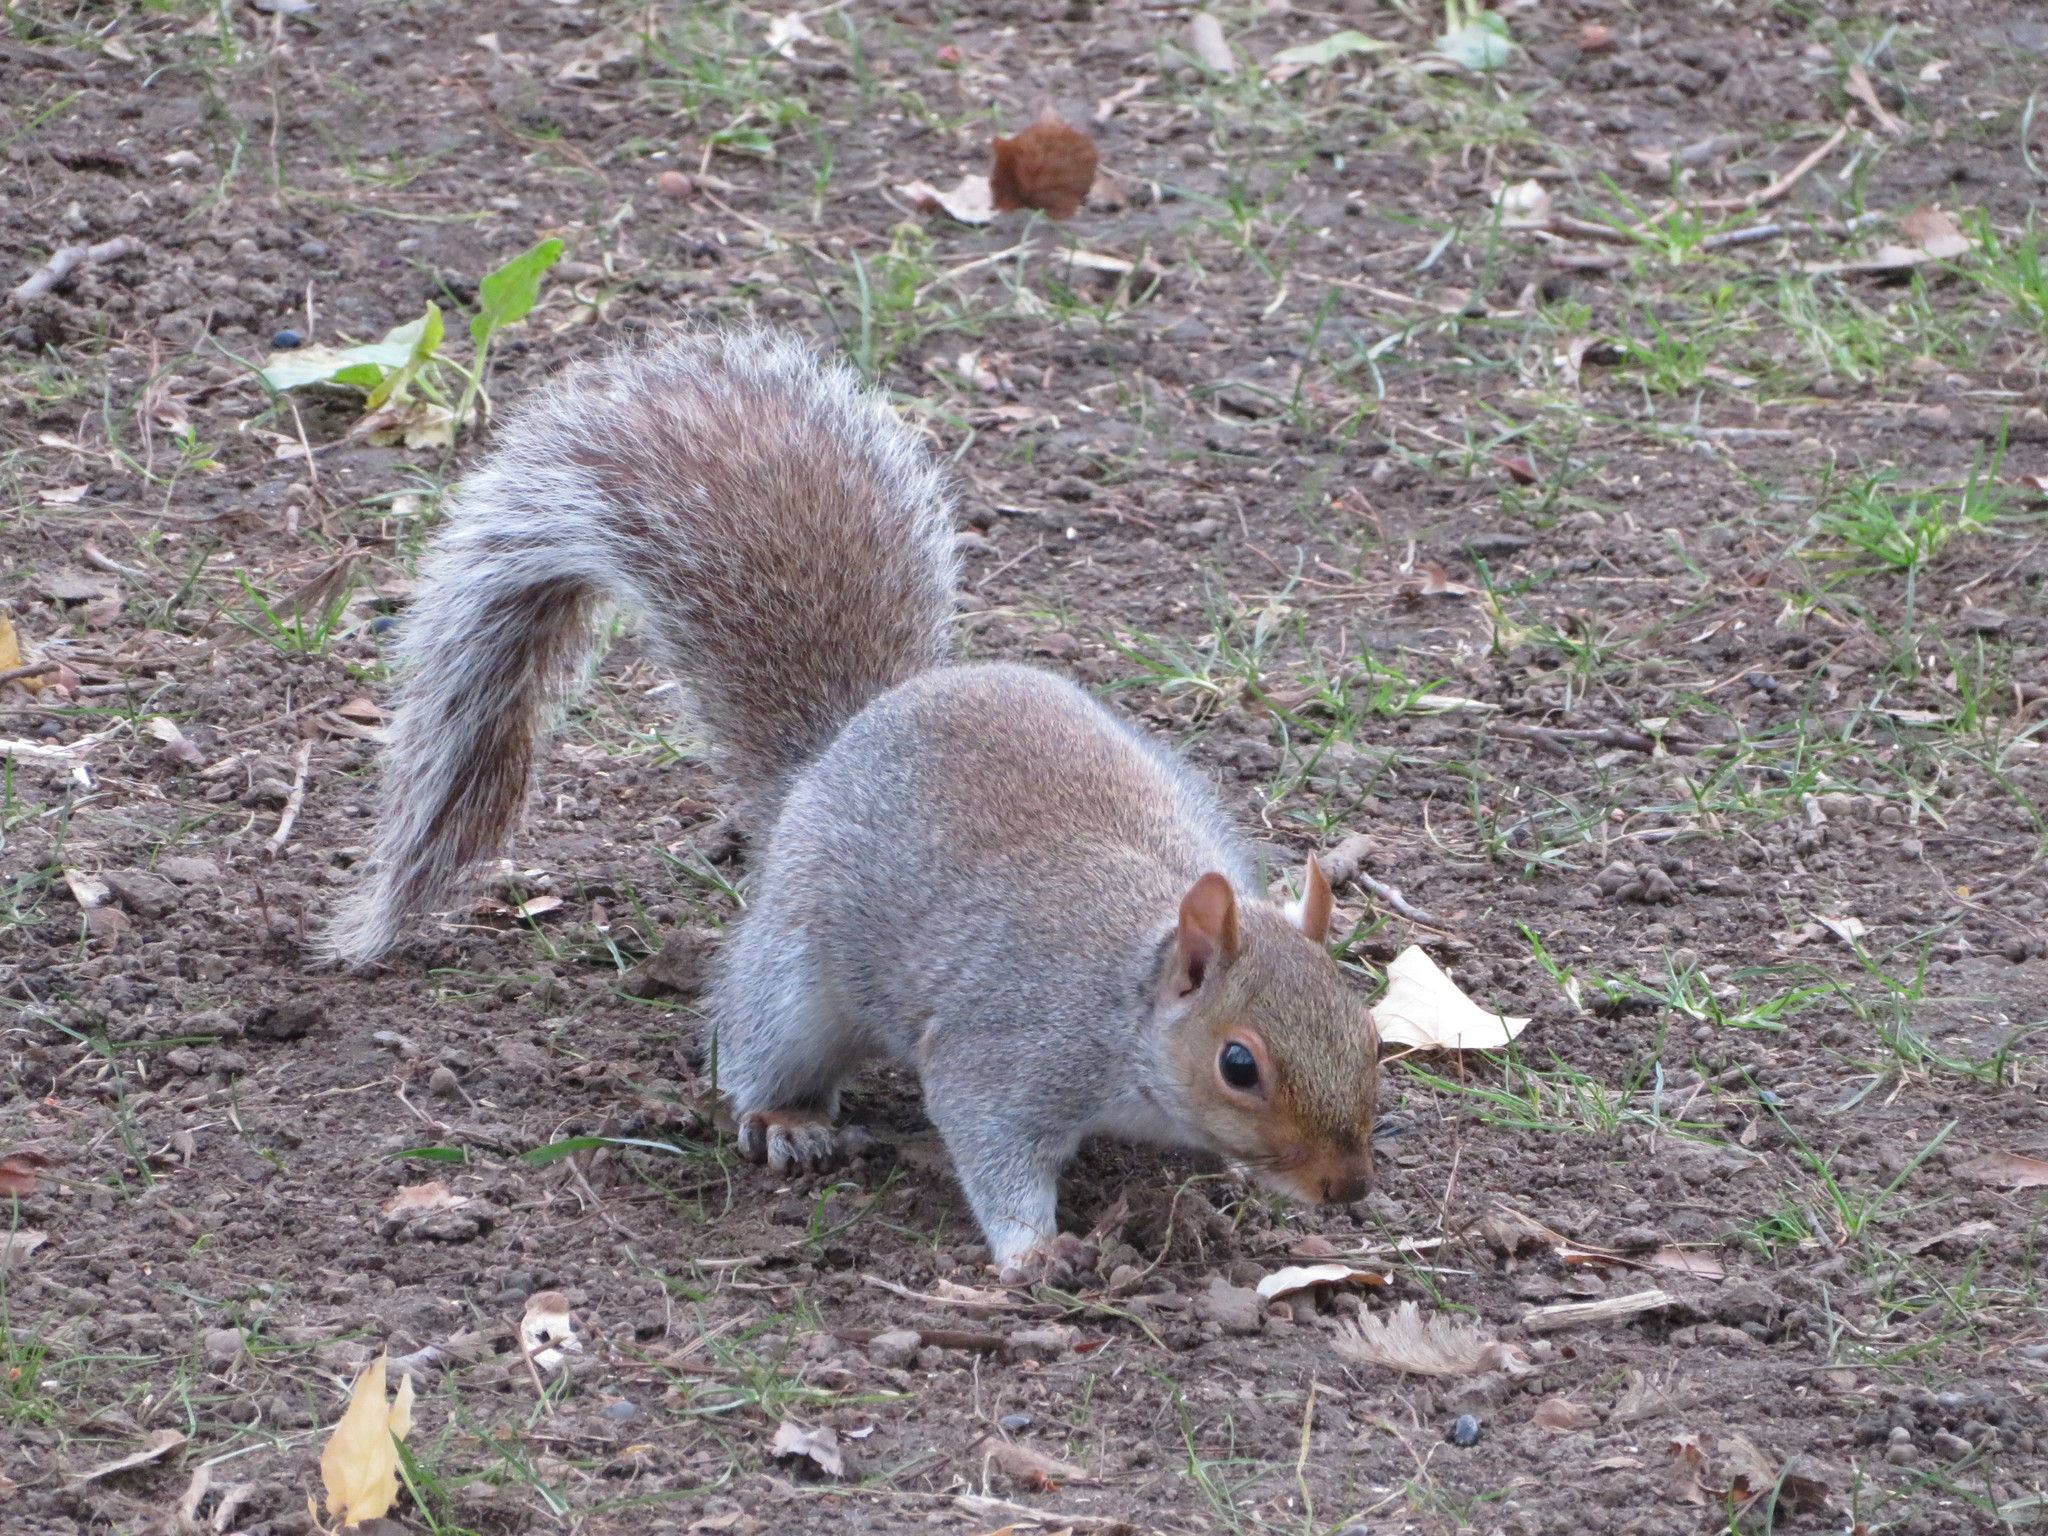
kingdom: Animalia
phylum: Chordata
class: Mammalia
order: Rodentia
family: Sciuridae
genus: Sciurus
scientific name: Sciurus carolinensis
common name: Eastern gray squirrel
